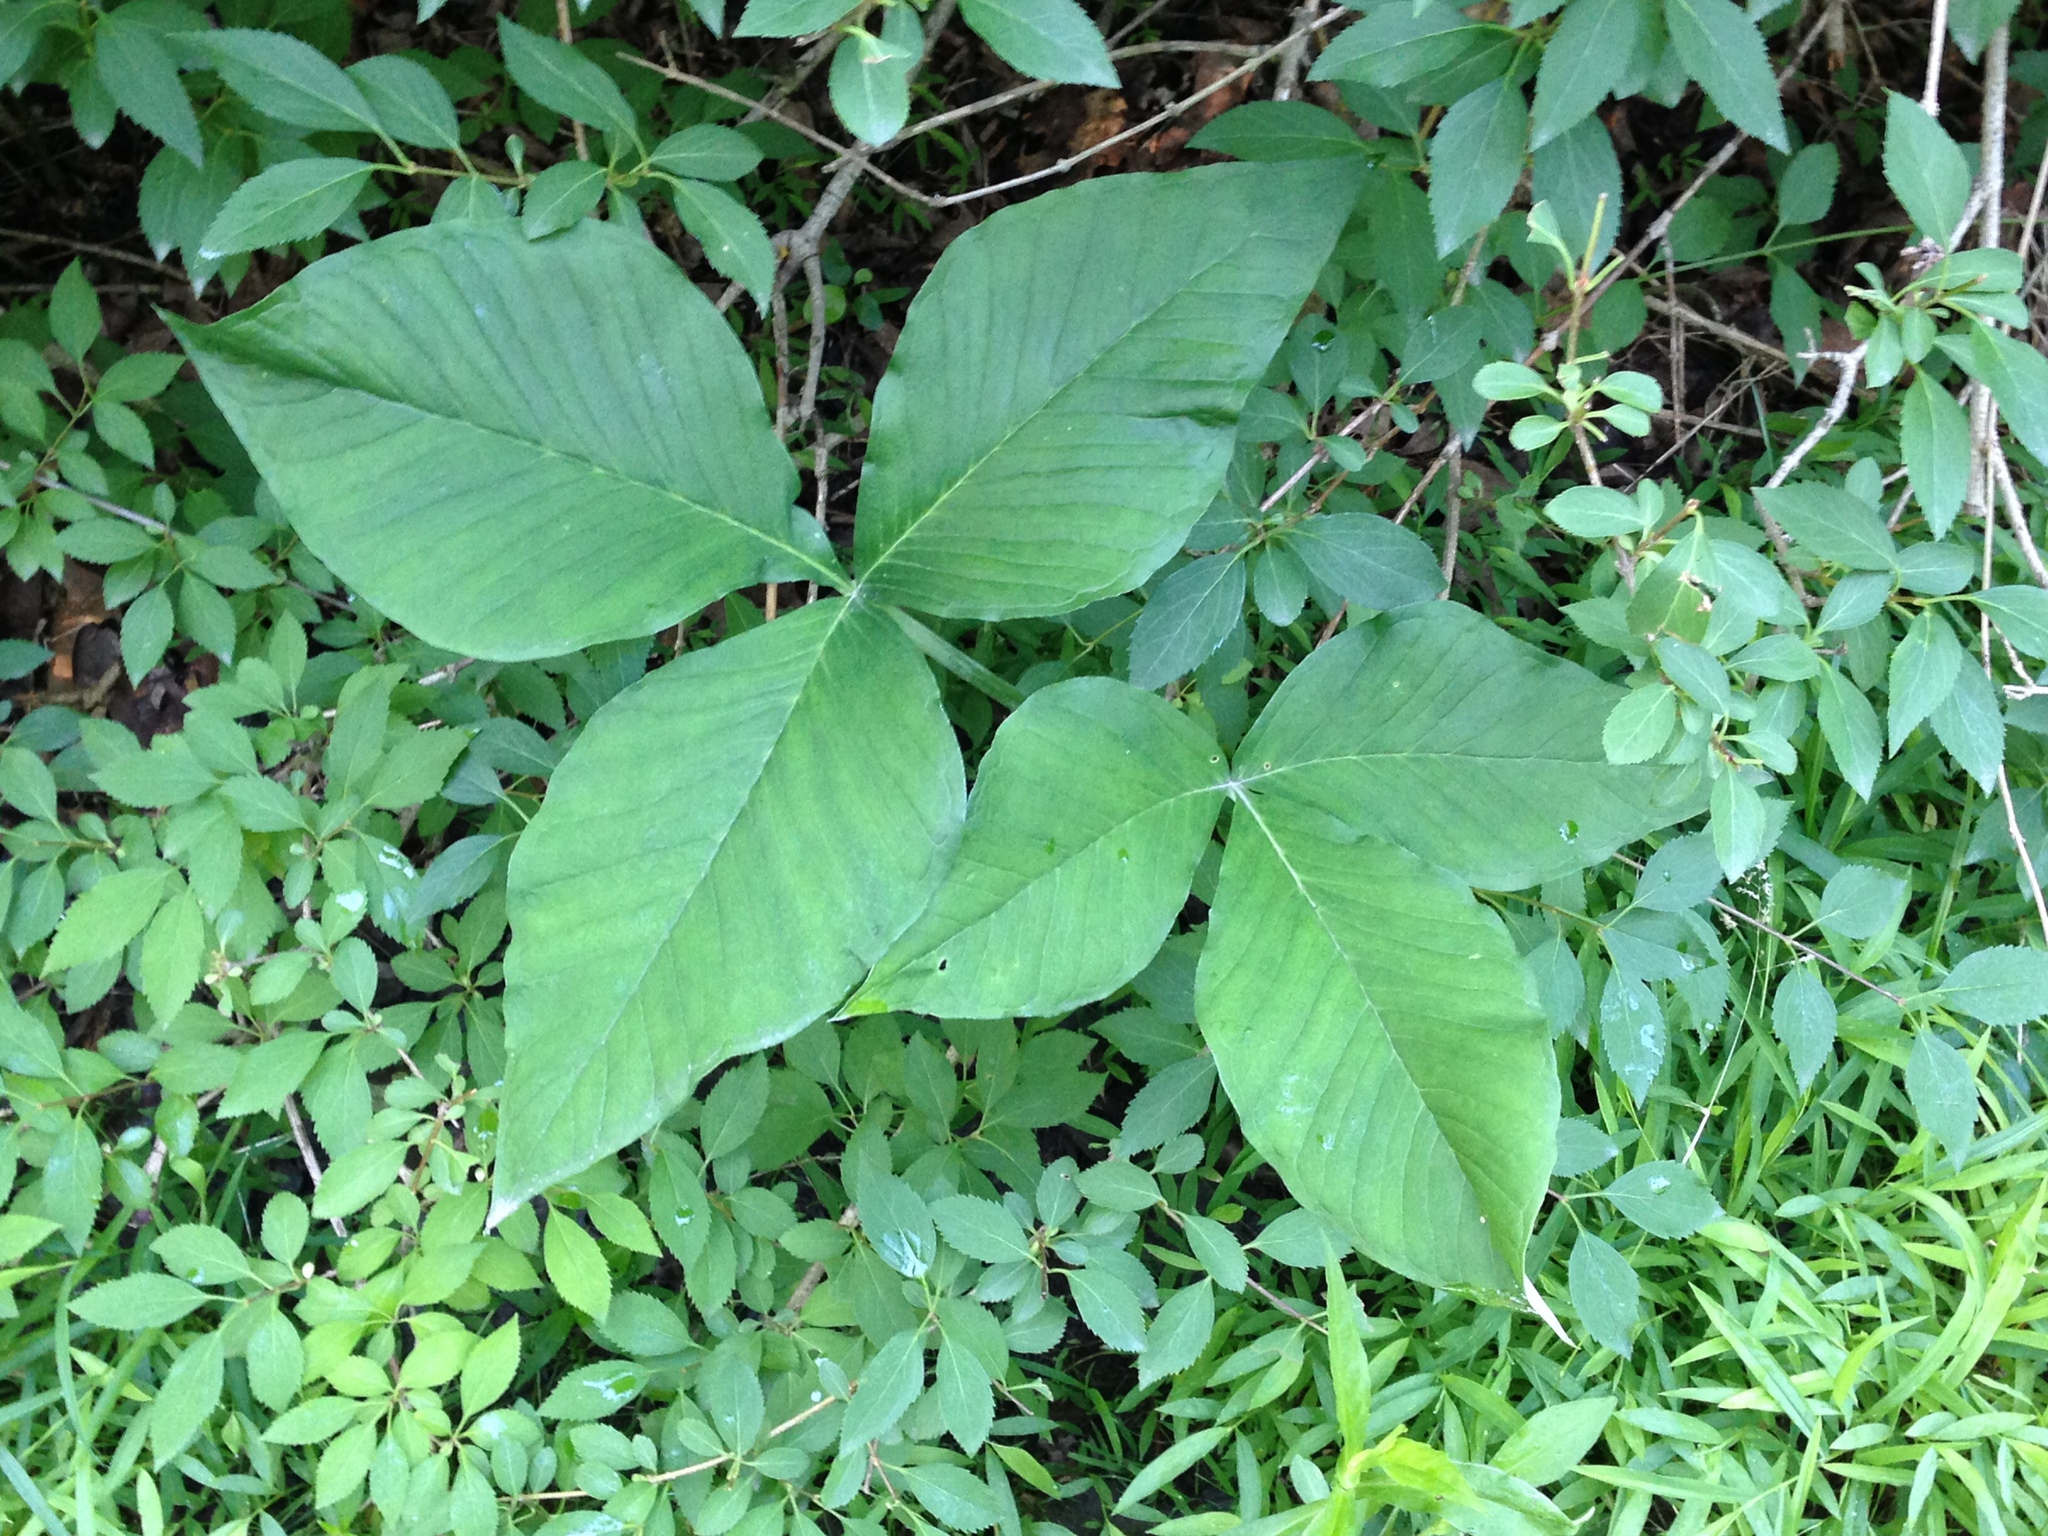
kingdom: Plantae
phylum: Tracheophyta
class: Liliopsida
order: Alismatales
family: Araceae
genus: Arisaema
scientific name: Arisaema triphyllum
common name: Jack-in-the-pulpit
